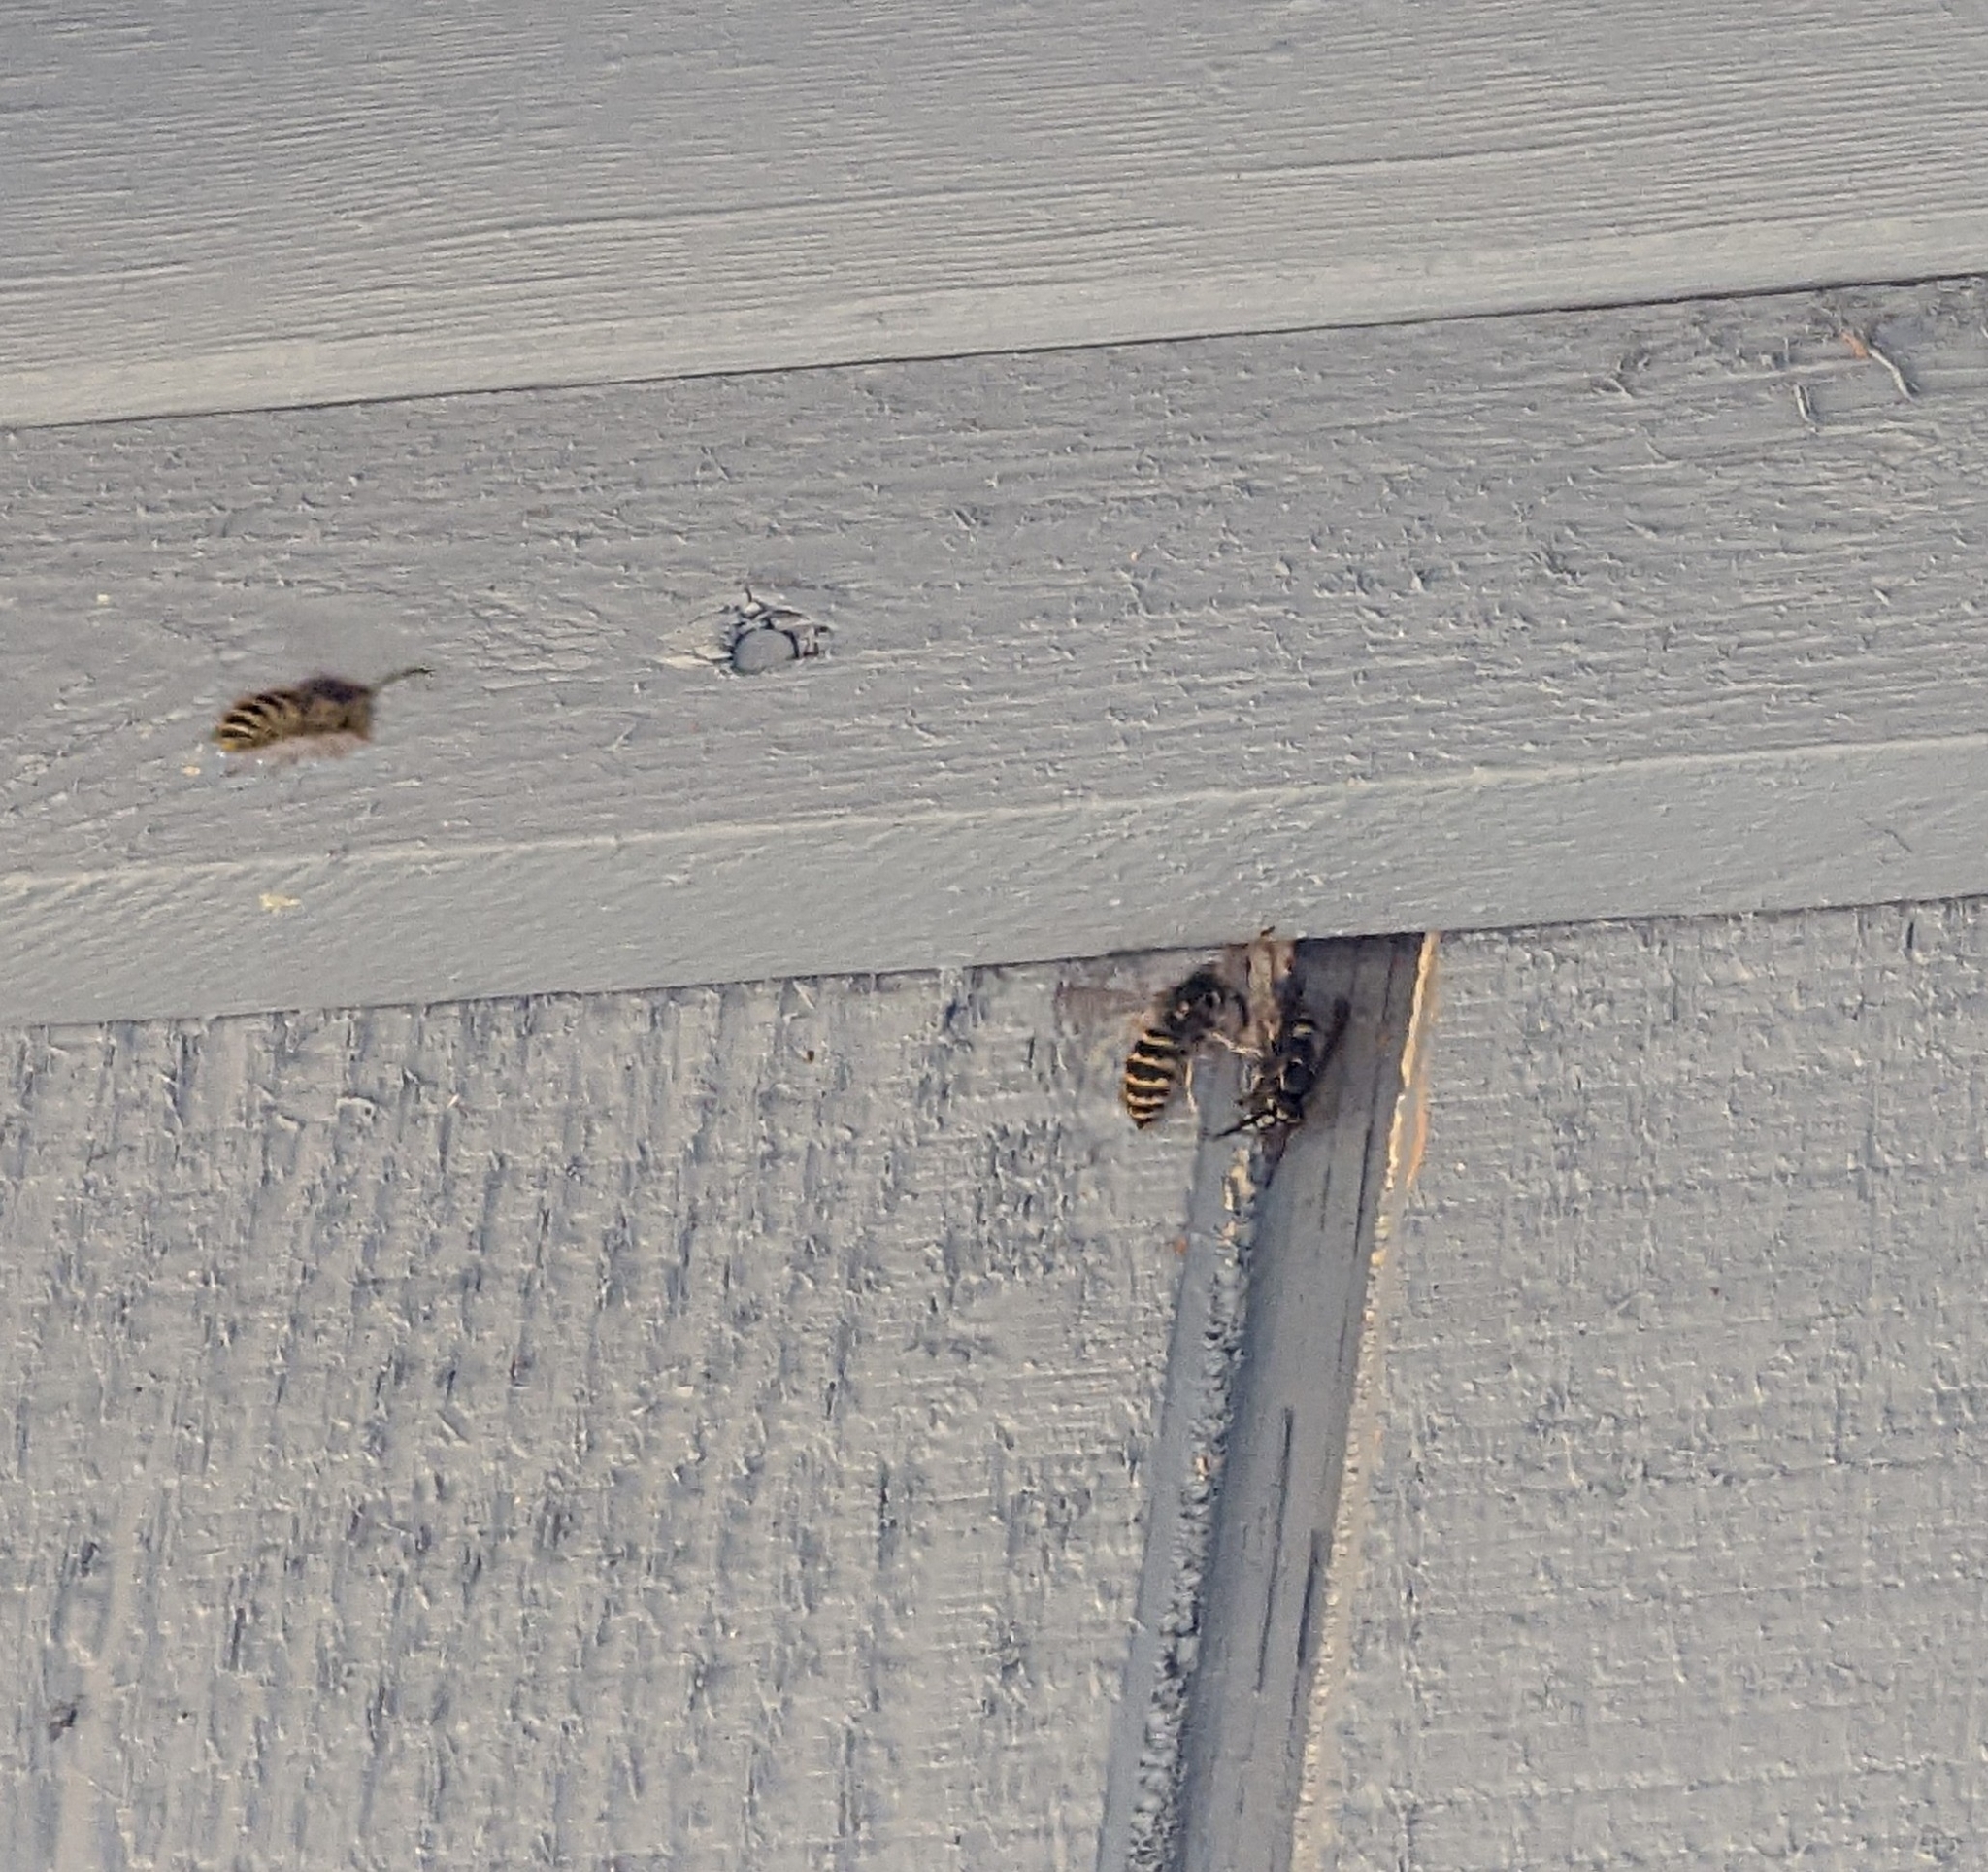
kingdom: Animalia
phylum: Arthropoda
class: Insecta
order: Hymenoptera
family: Vespidae
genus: Vespula
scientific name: Vespula alascensis
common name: Alaska yellowjacket
